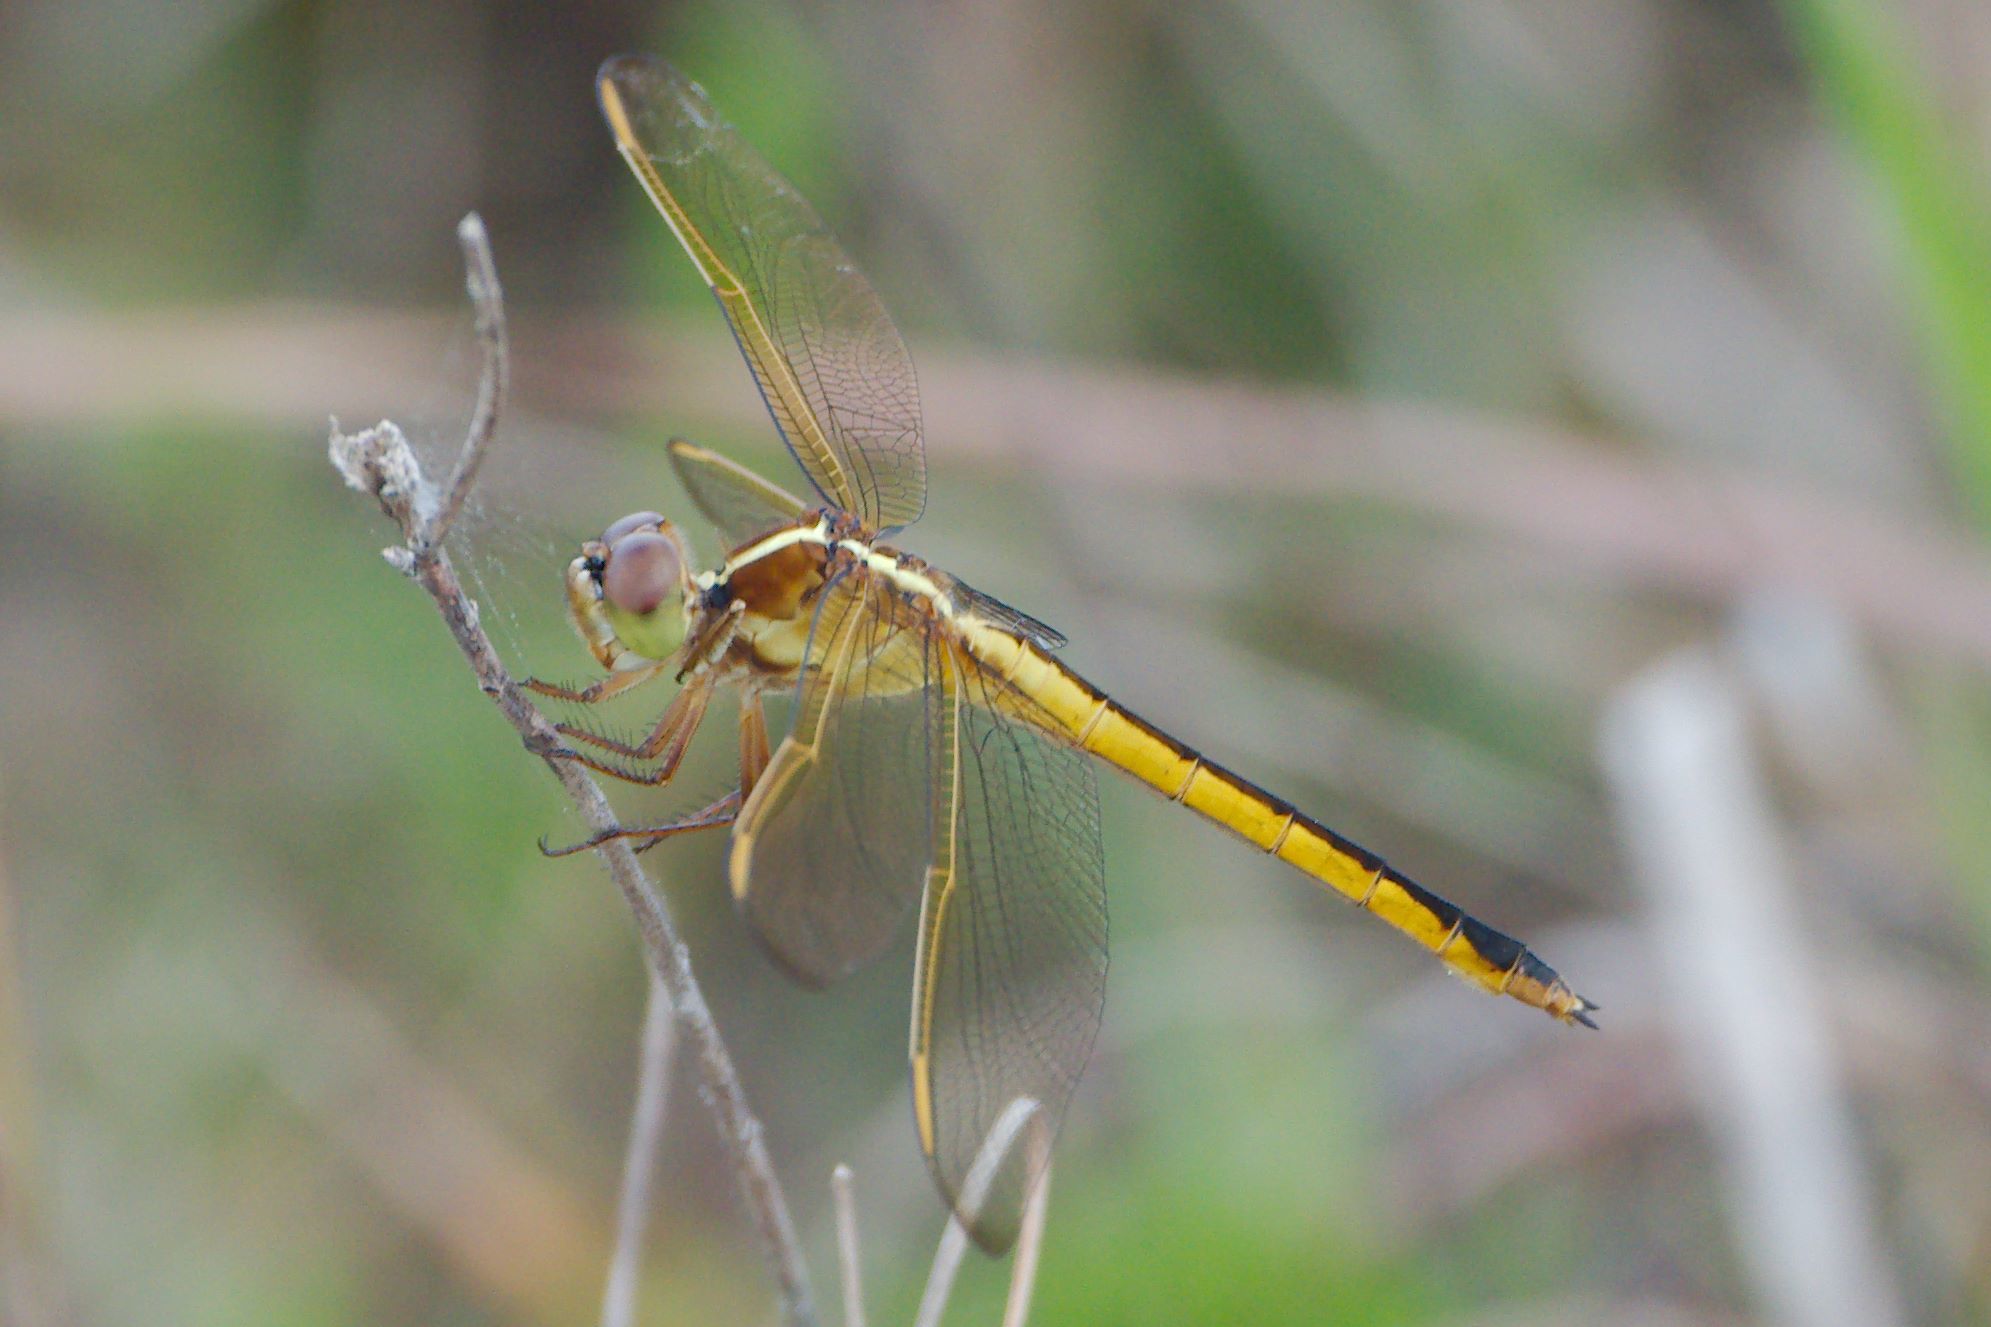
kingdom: Animalia
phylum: Arthropoda
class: Insecta
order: Odonata
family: Libellulidae
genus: Libellula
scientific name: Libellula needhami
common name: Needham's skimmer
